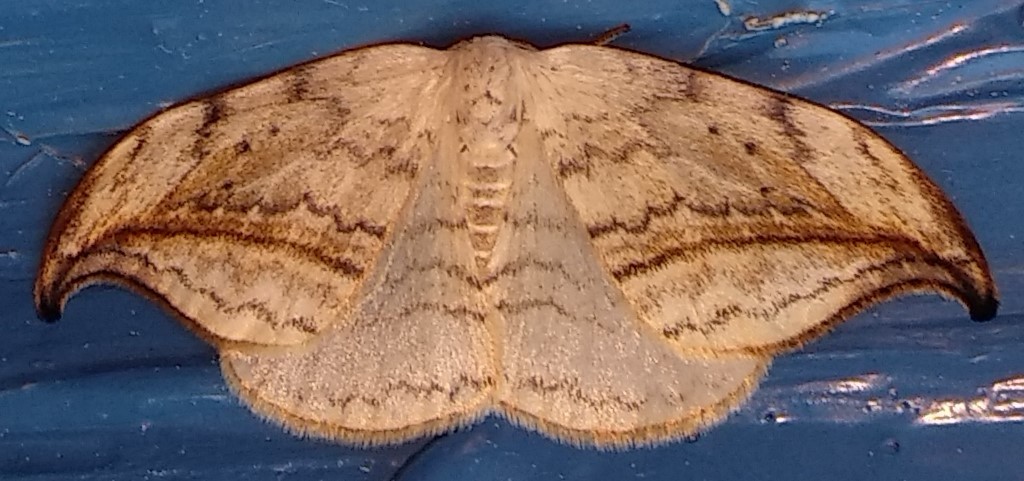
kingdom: Animalia
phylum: Arthropoda
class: Insecta
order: Lepidoptera
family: Drepanidae
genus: Drepana
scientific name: Drepana arcuata
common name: Arched hooktip moth
